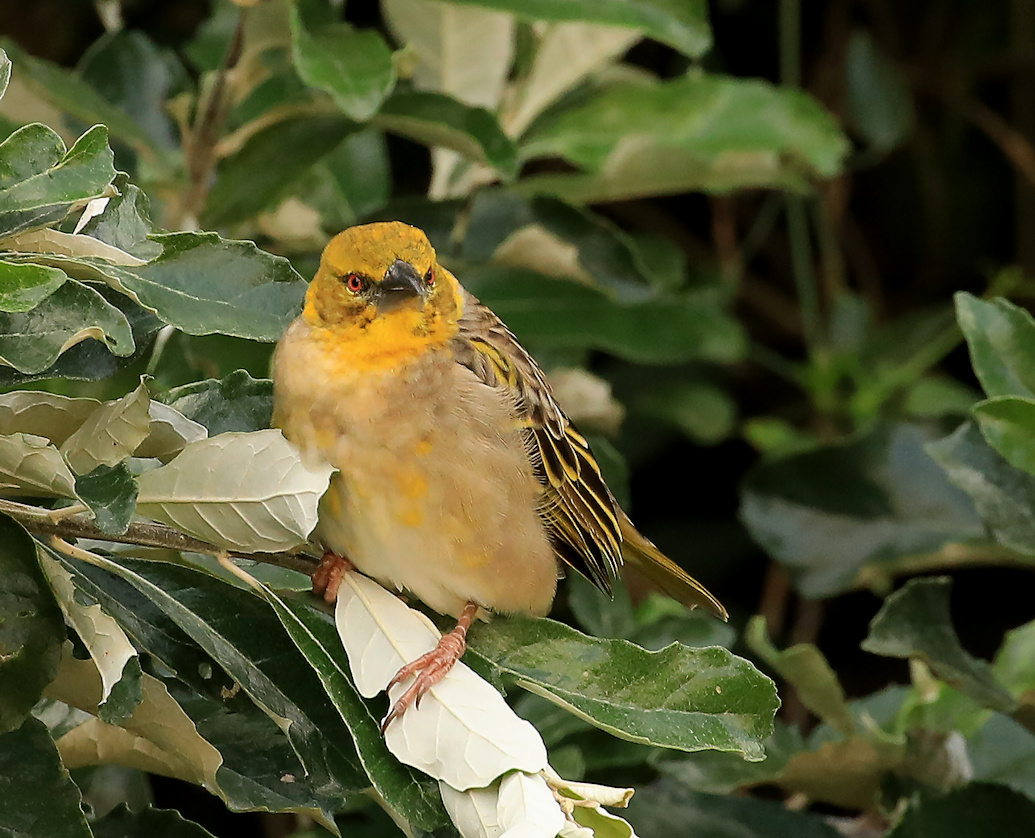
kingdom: Animalia
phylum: Chordata
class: Aves
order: Passeriformes
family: Ploceidae
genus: Ploceus
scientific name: Ploceus cucullatus
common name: Village weaver
